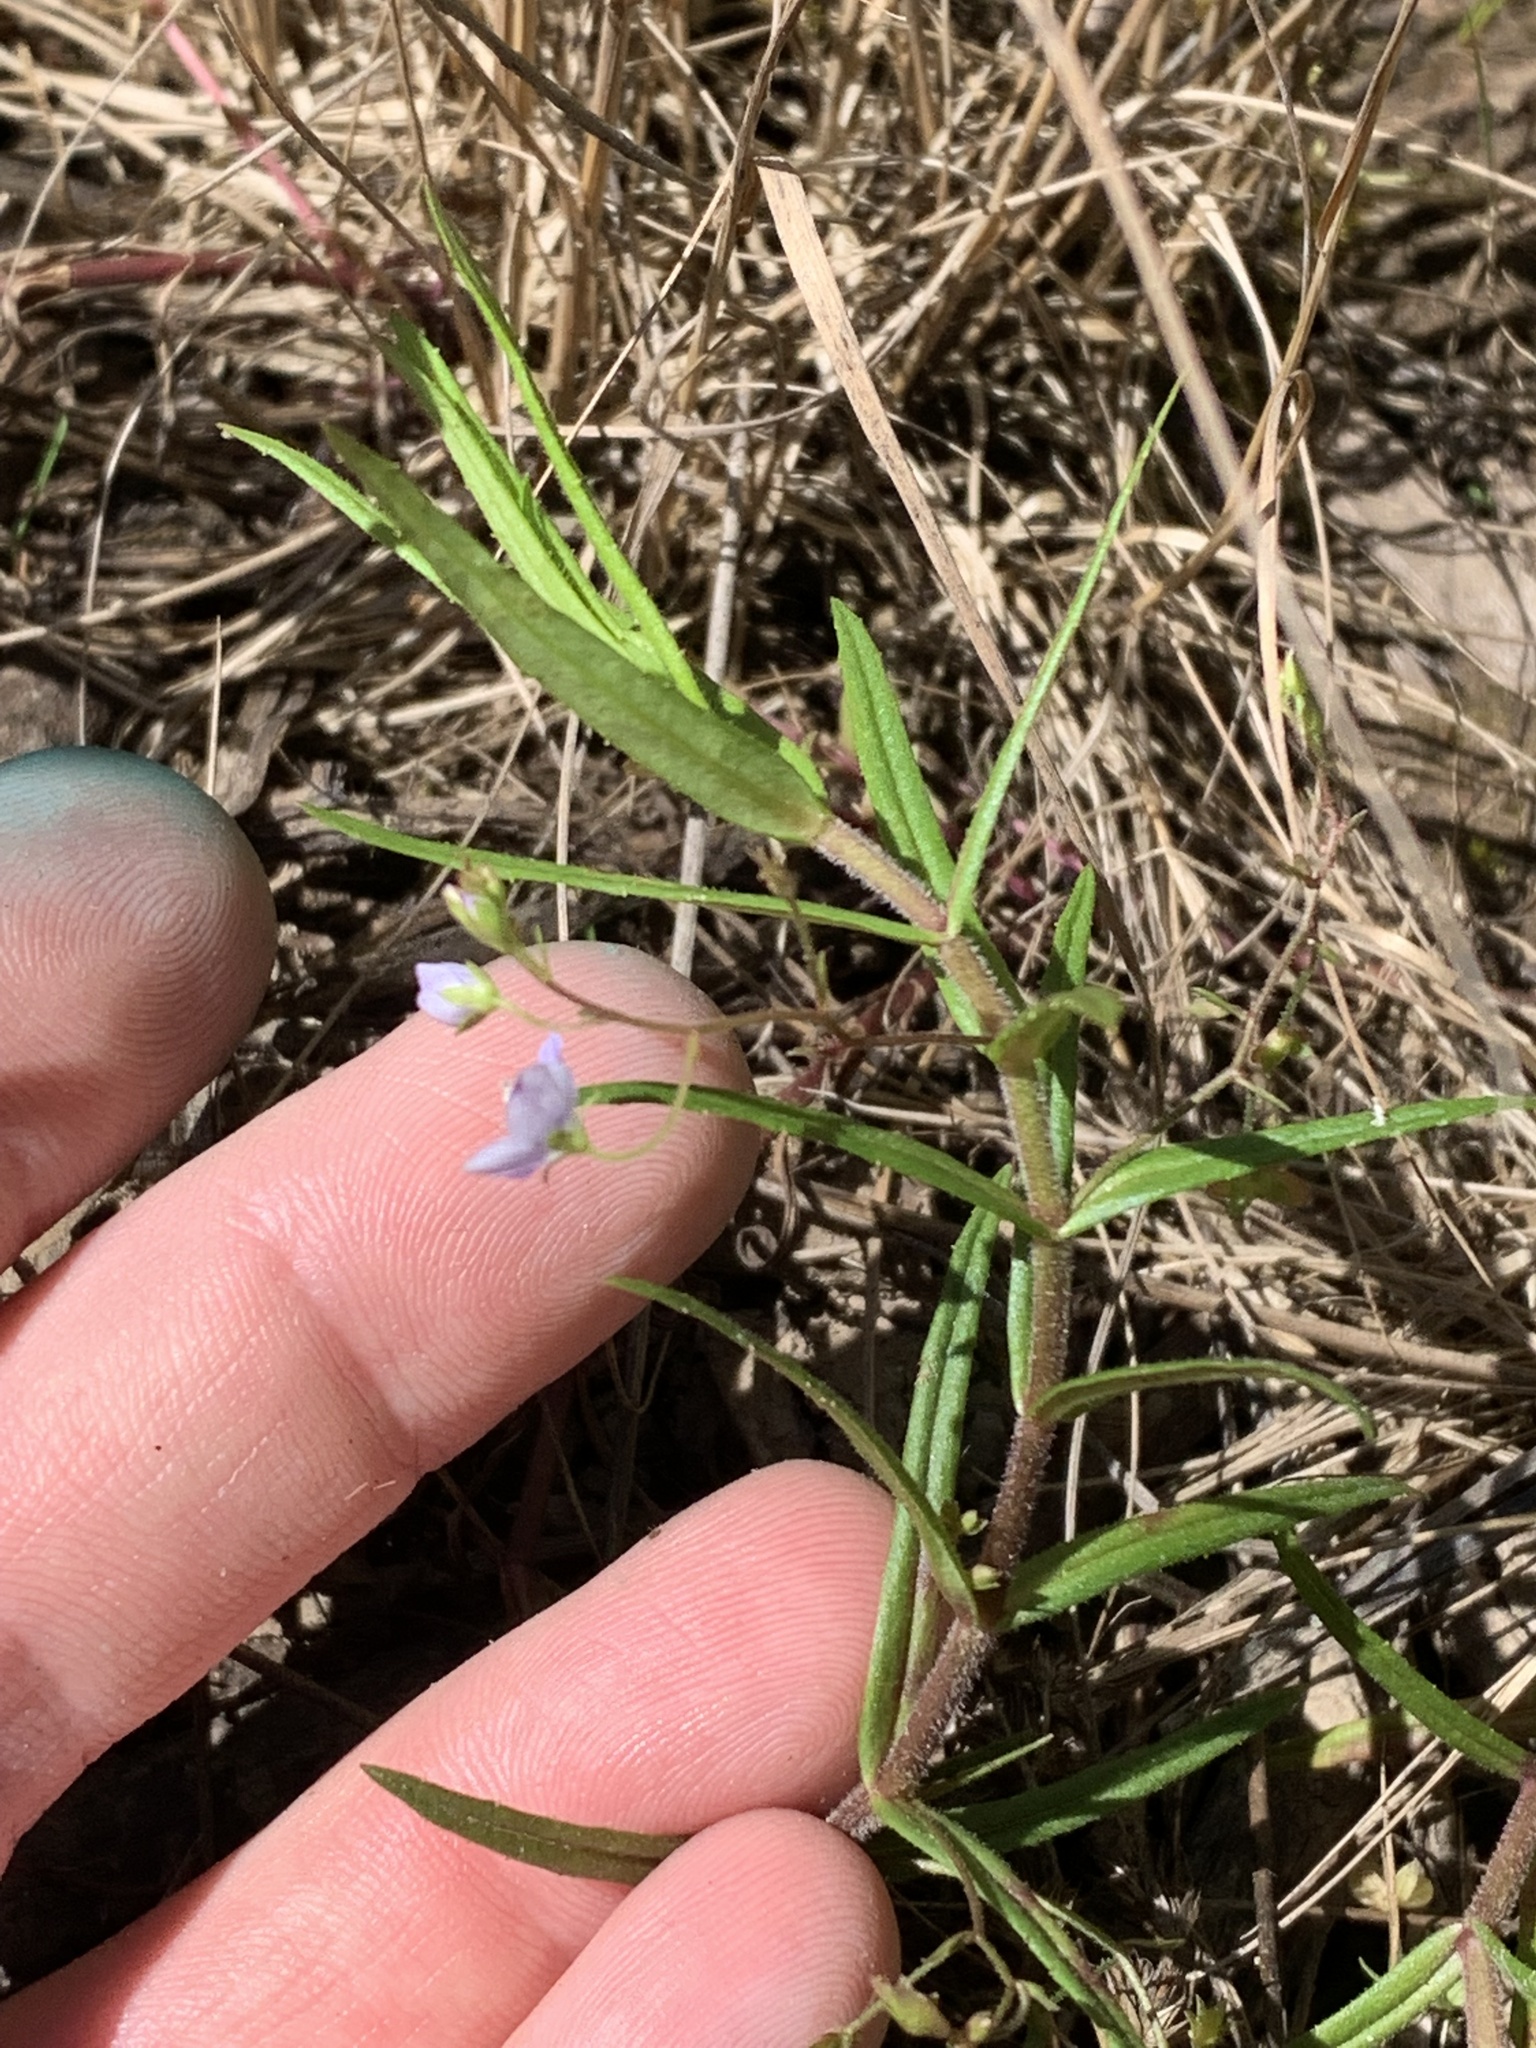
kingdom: Plantae
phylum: Tracheophyta
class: Magnoliopsida
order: Lamiales
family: Plantaginaceae
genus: Veronica
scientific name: Veronica scutellata
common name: Marsh speedwell
